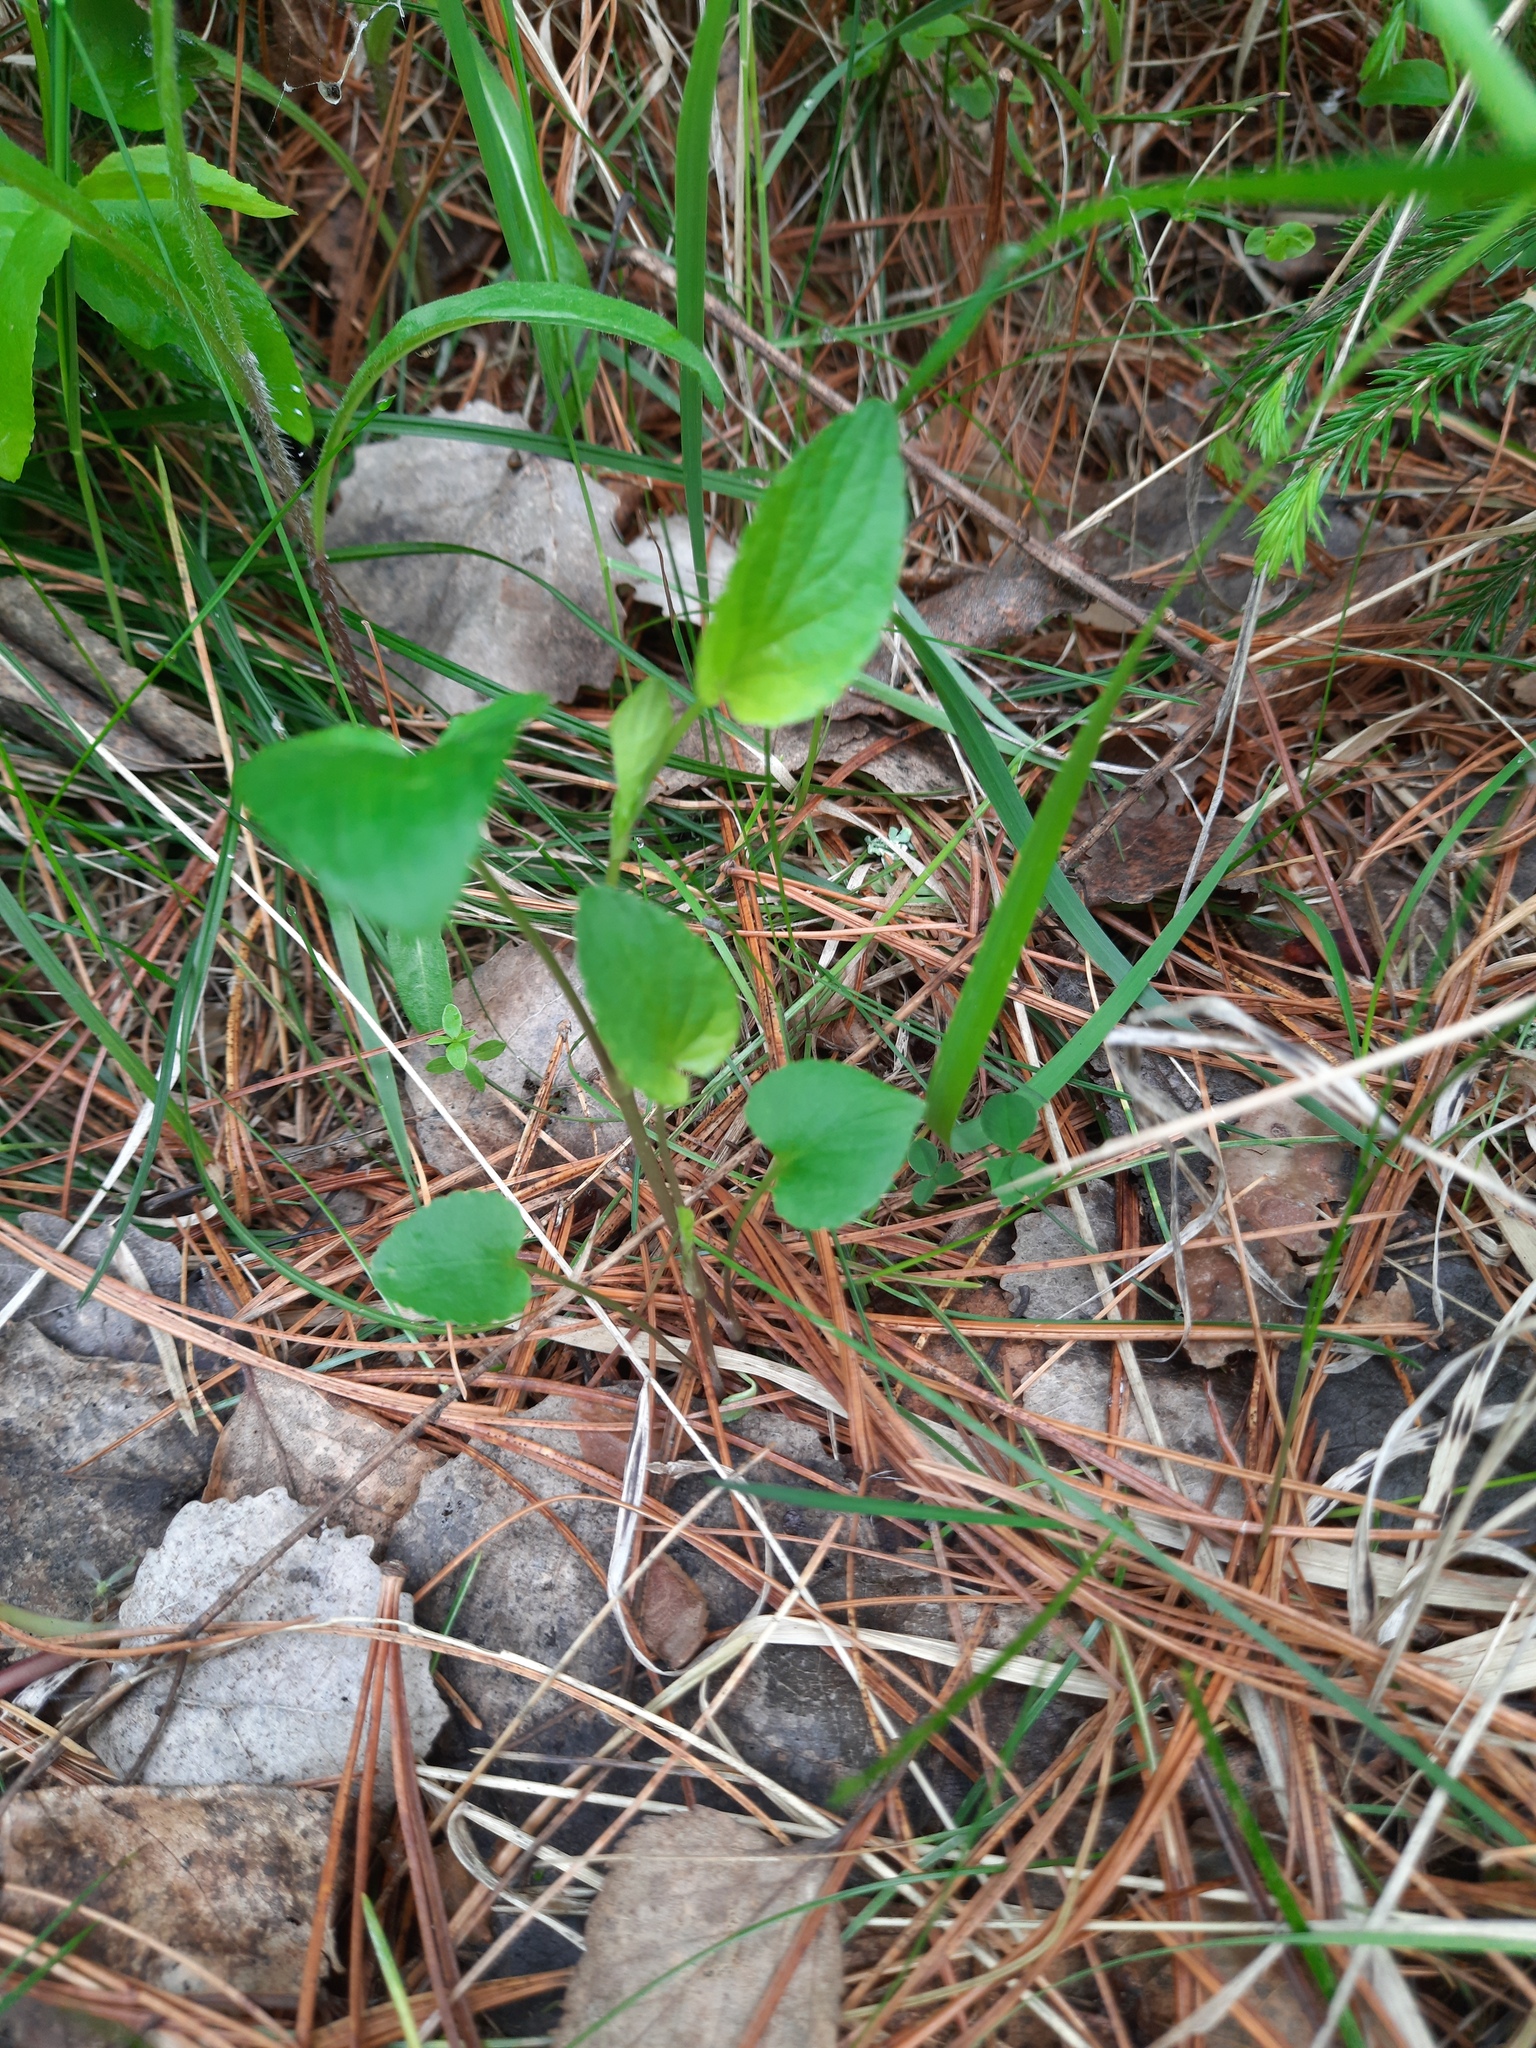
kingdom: Plantae
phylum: Tracheophyta
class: Magnoliopsida
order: Malpighiales
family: Violaceae
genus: Viola
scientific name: Viola
